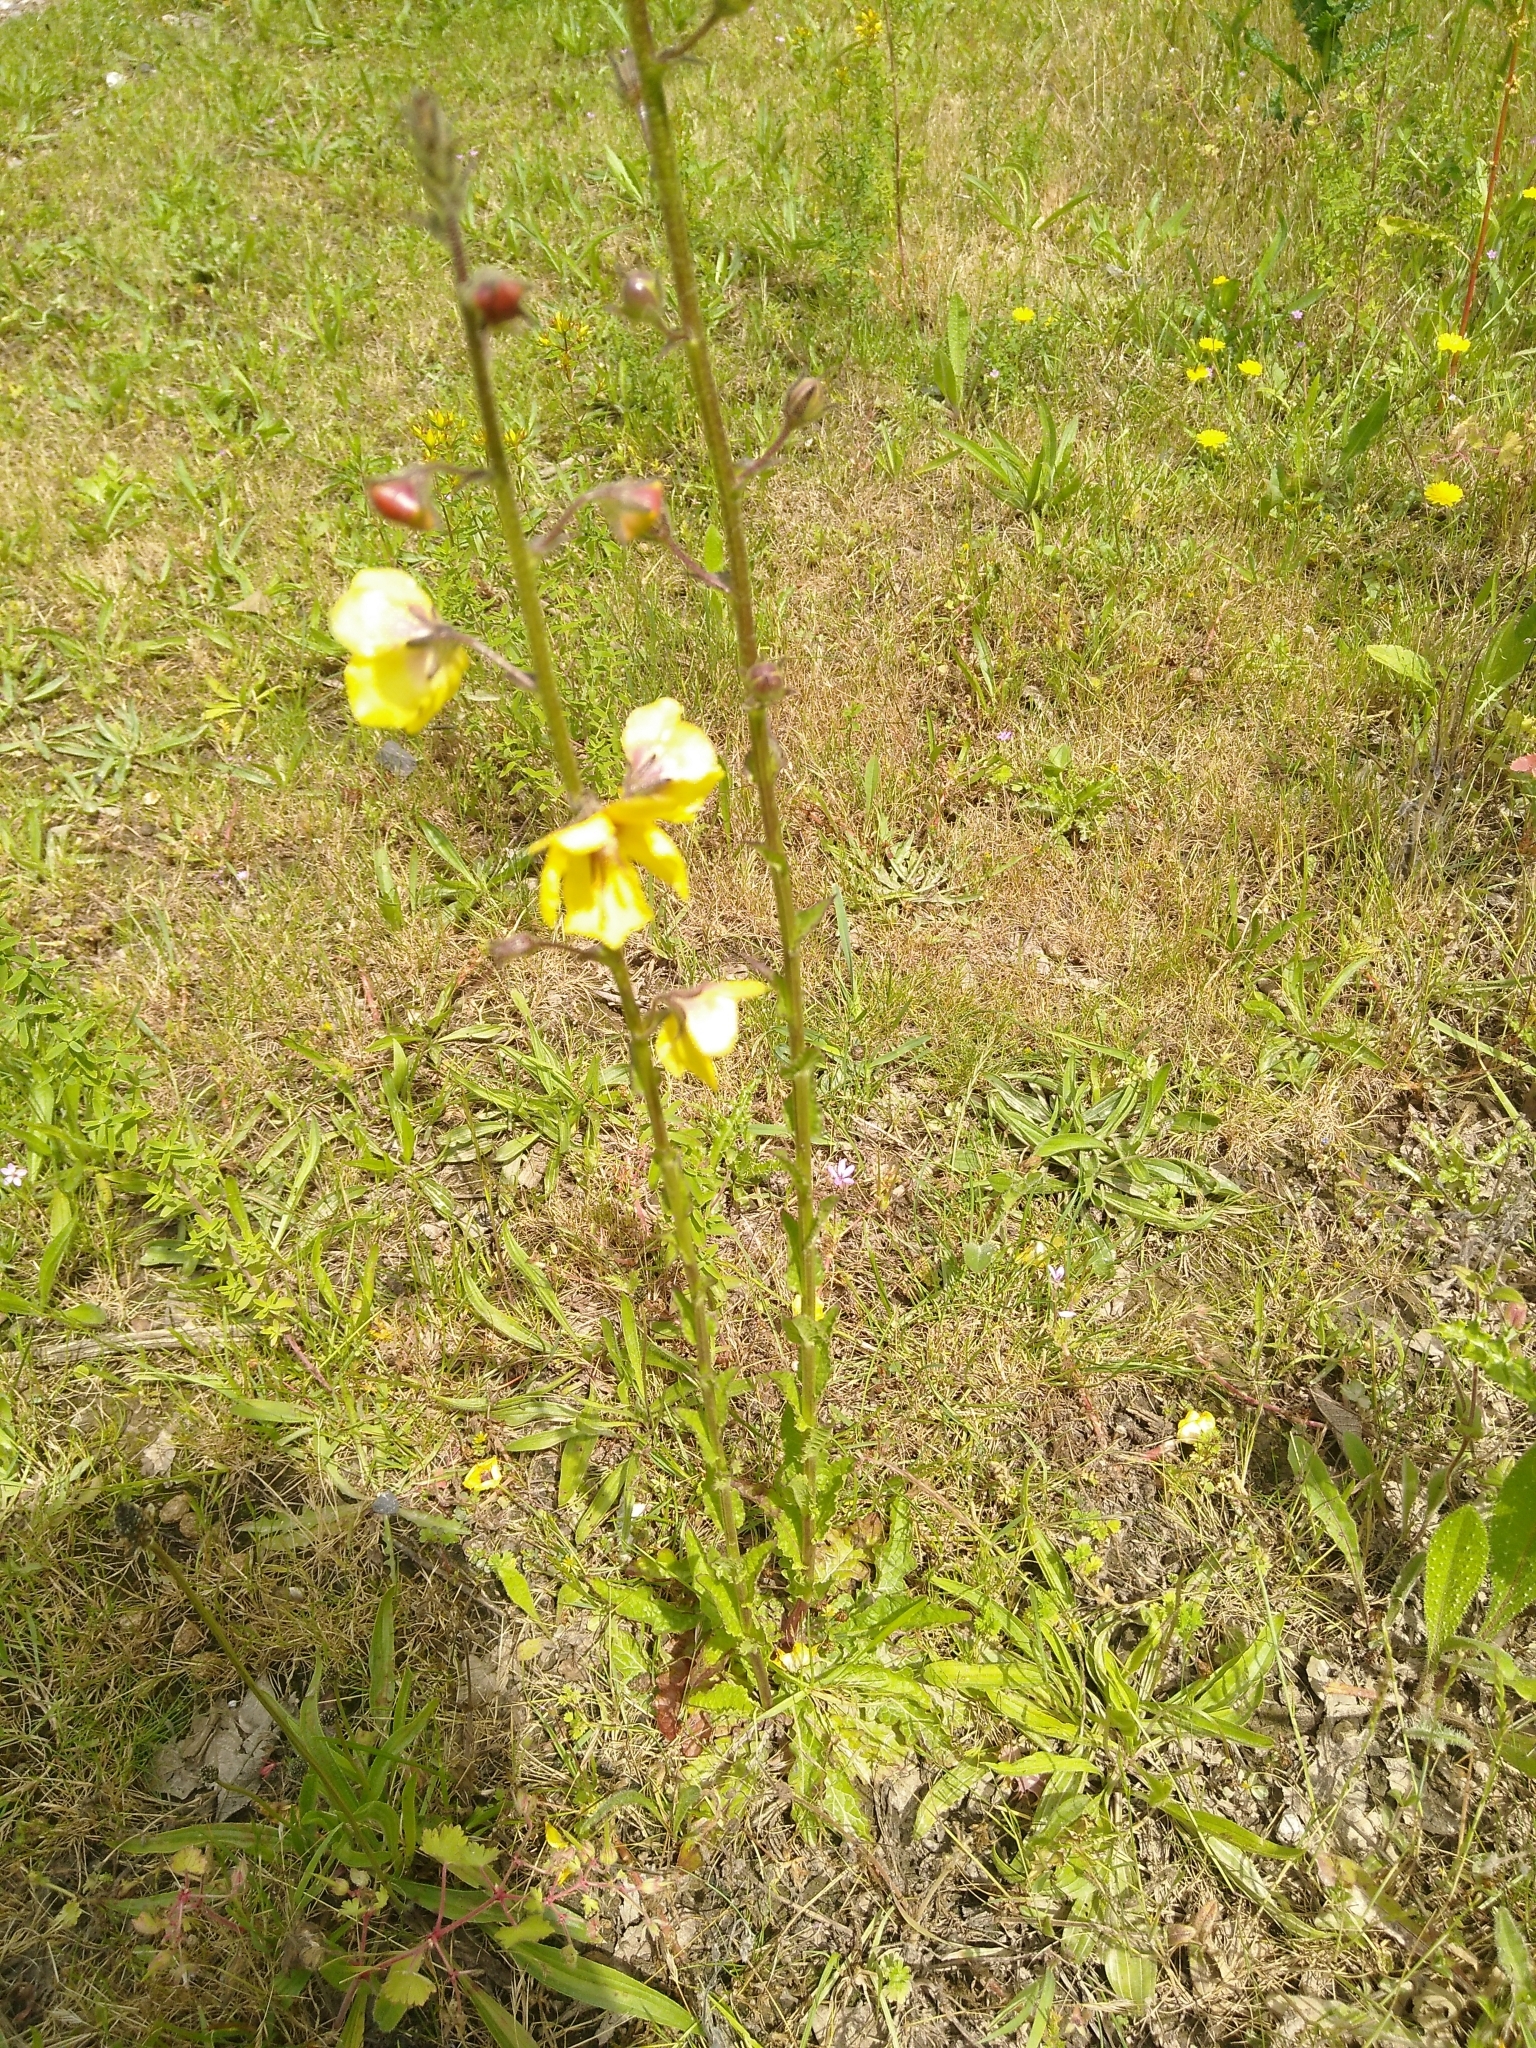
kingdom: Plantae
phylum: Tracheophyta
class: Magnoliopsida
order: Lamiales
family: Scrophulariaceae
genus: Verbascum
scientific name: Verbascum blattaria
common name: Moth mullein
